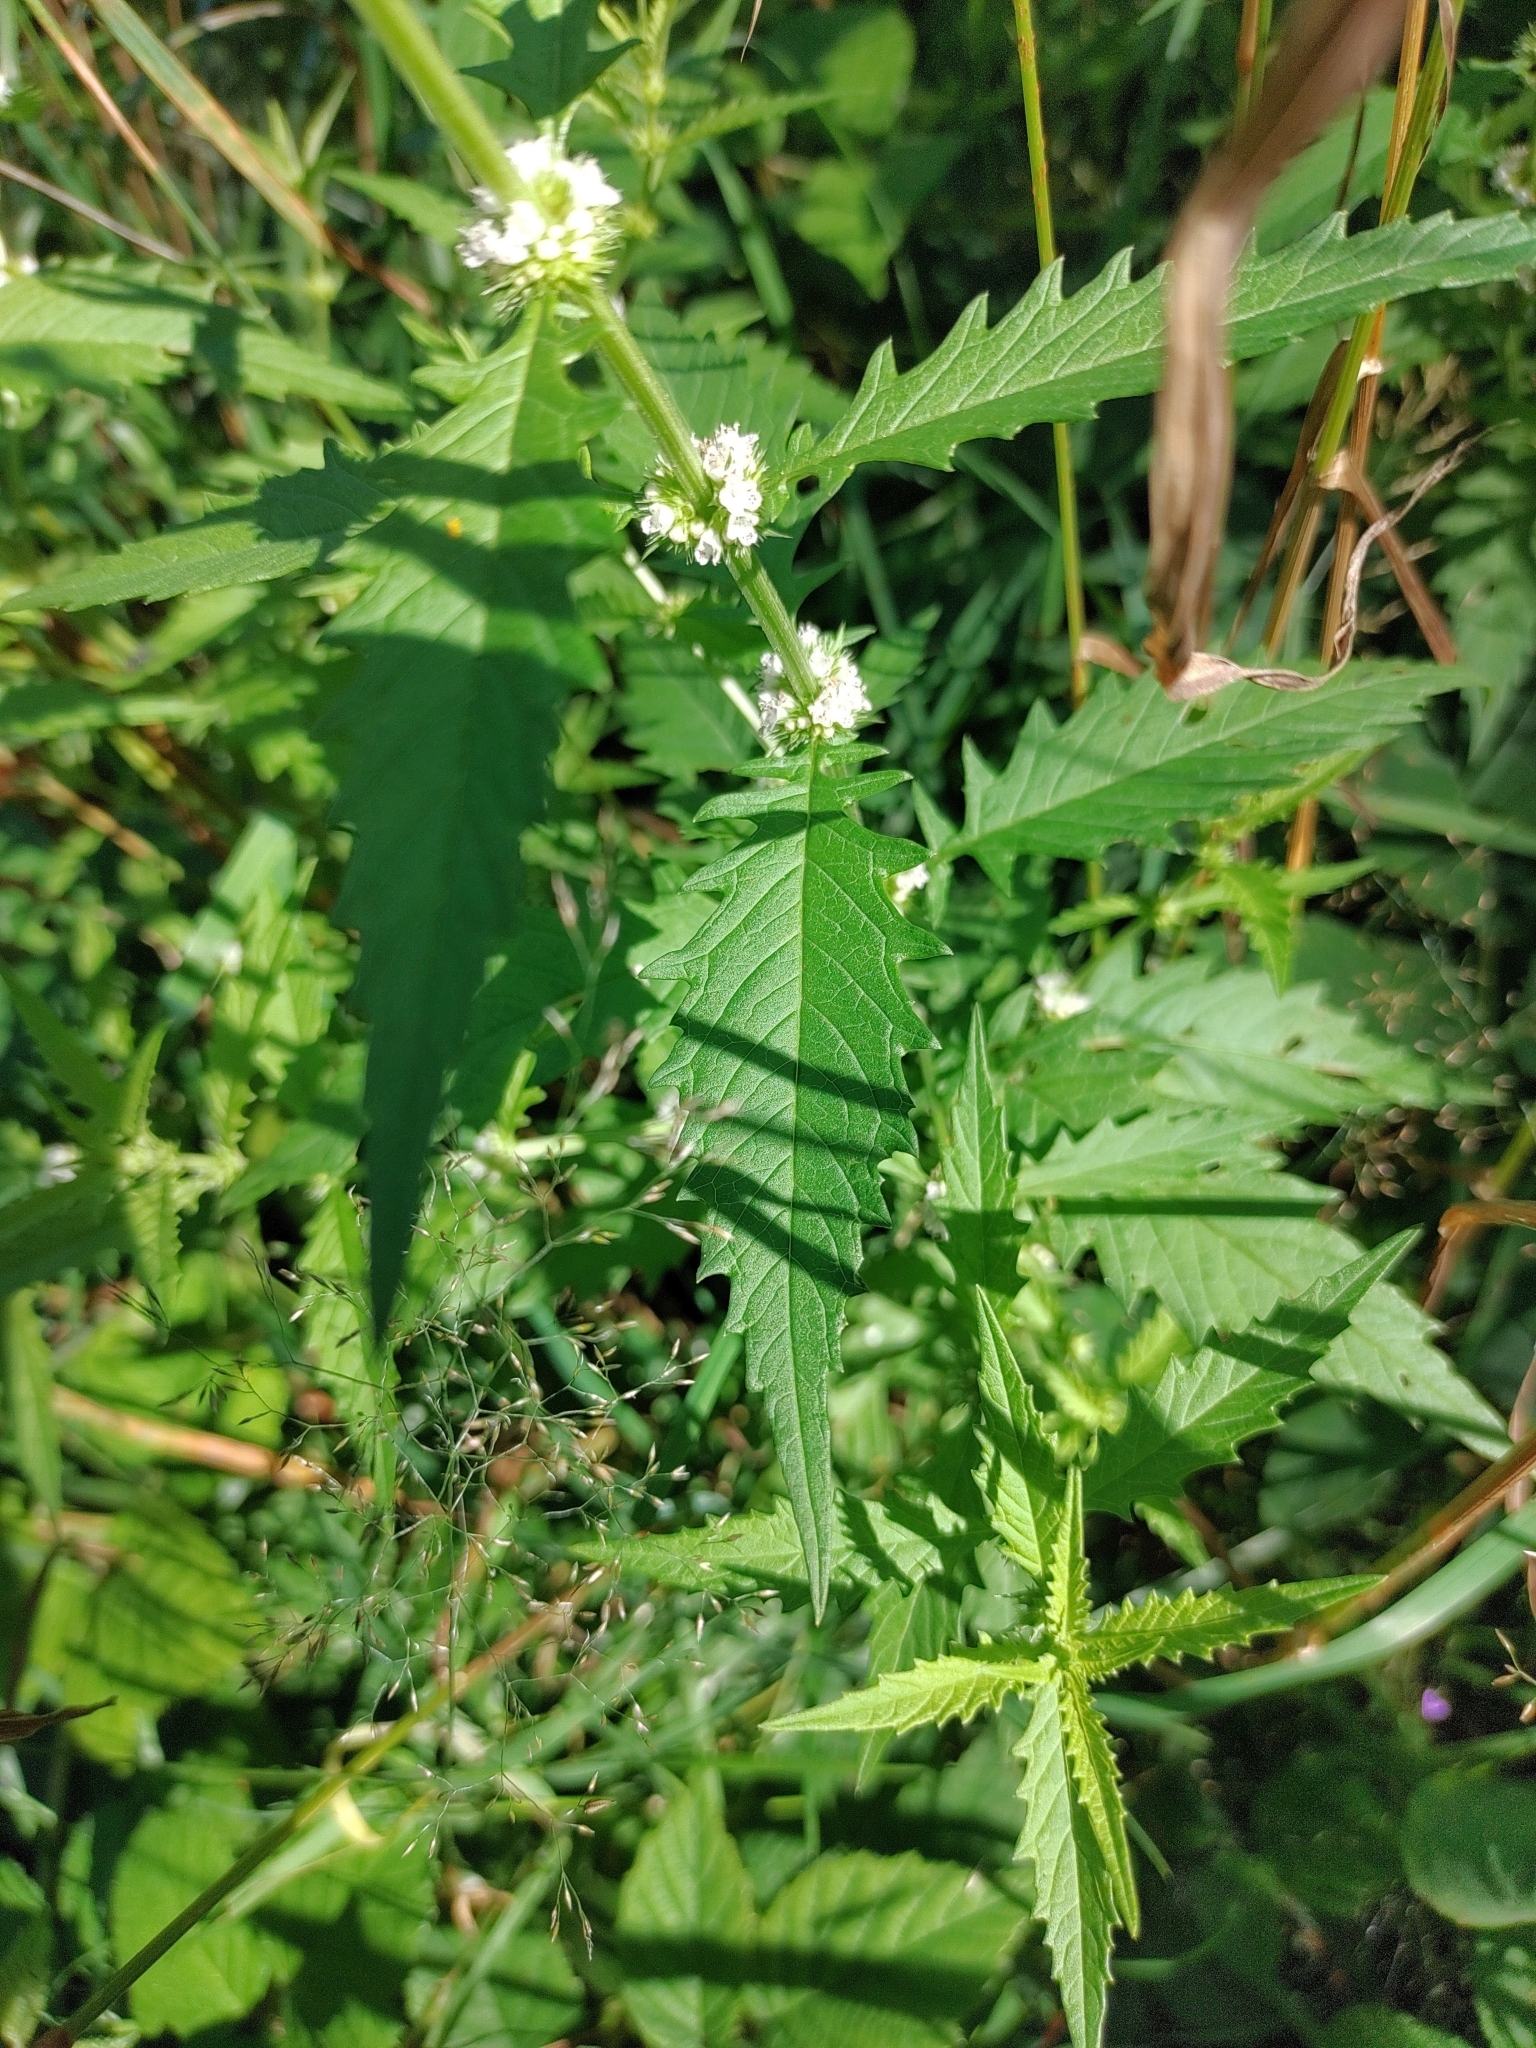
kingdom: Plantae
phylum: Tracheophyta
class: Magnoliopsida
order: Lamiales
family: Lamiaceae
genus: Lycopus
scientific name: Lycopus europaeus
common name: European bugleweed
